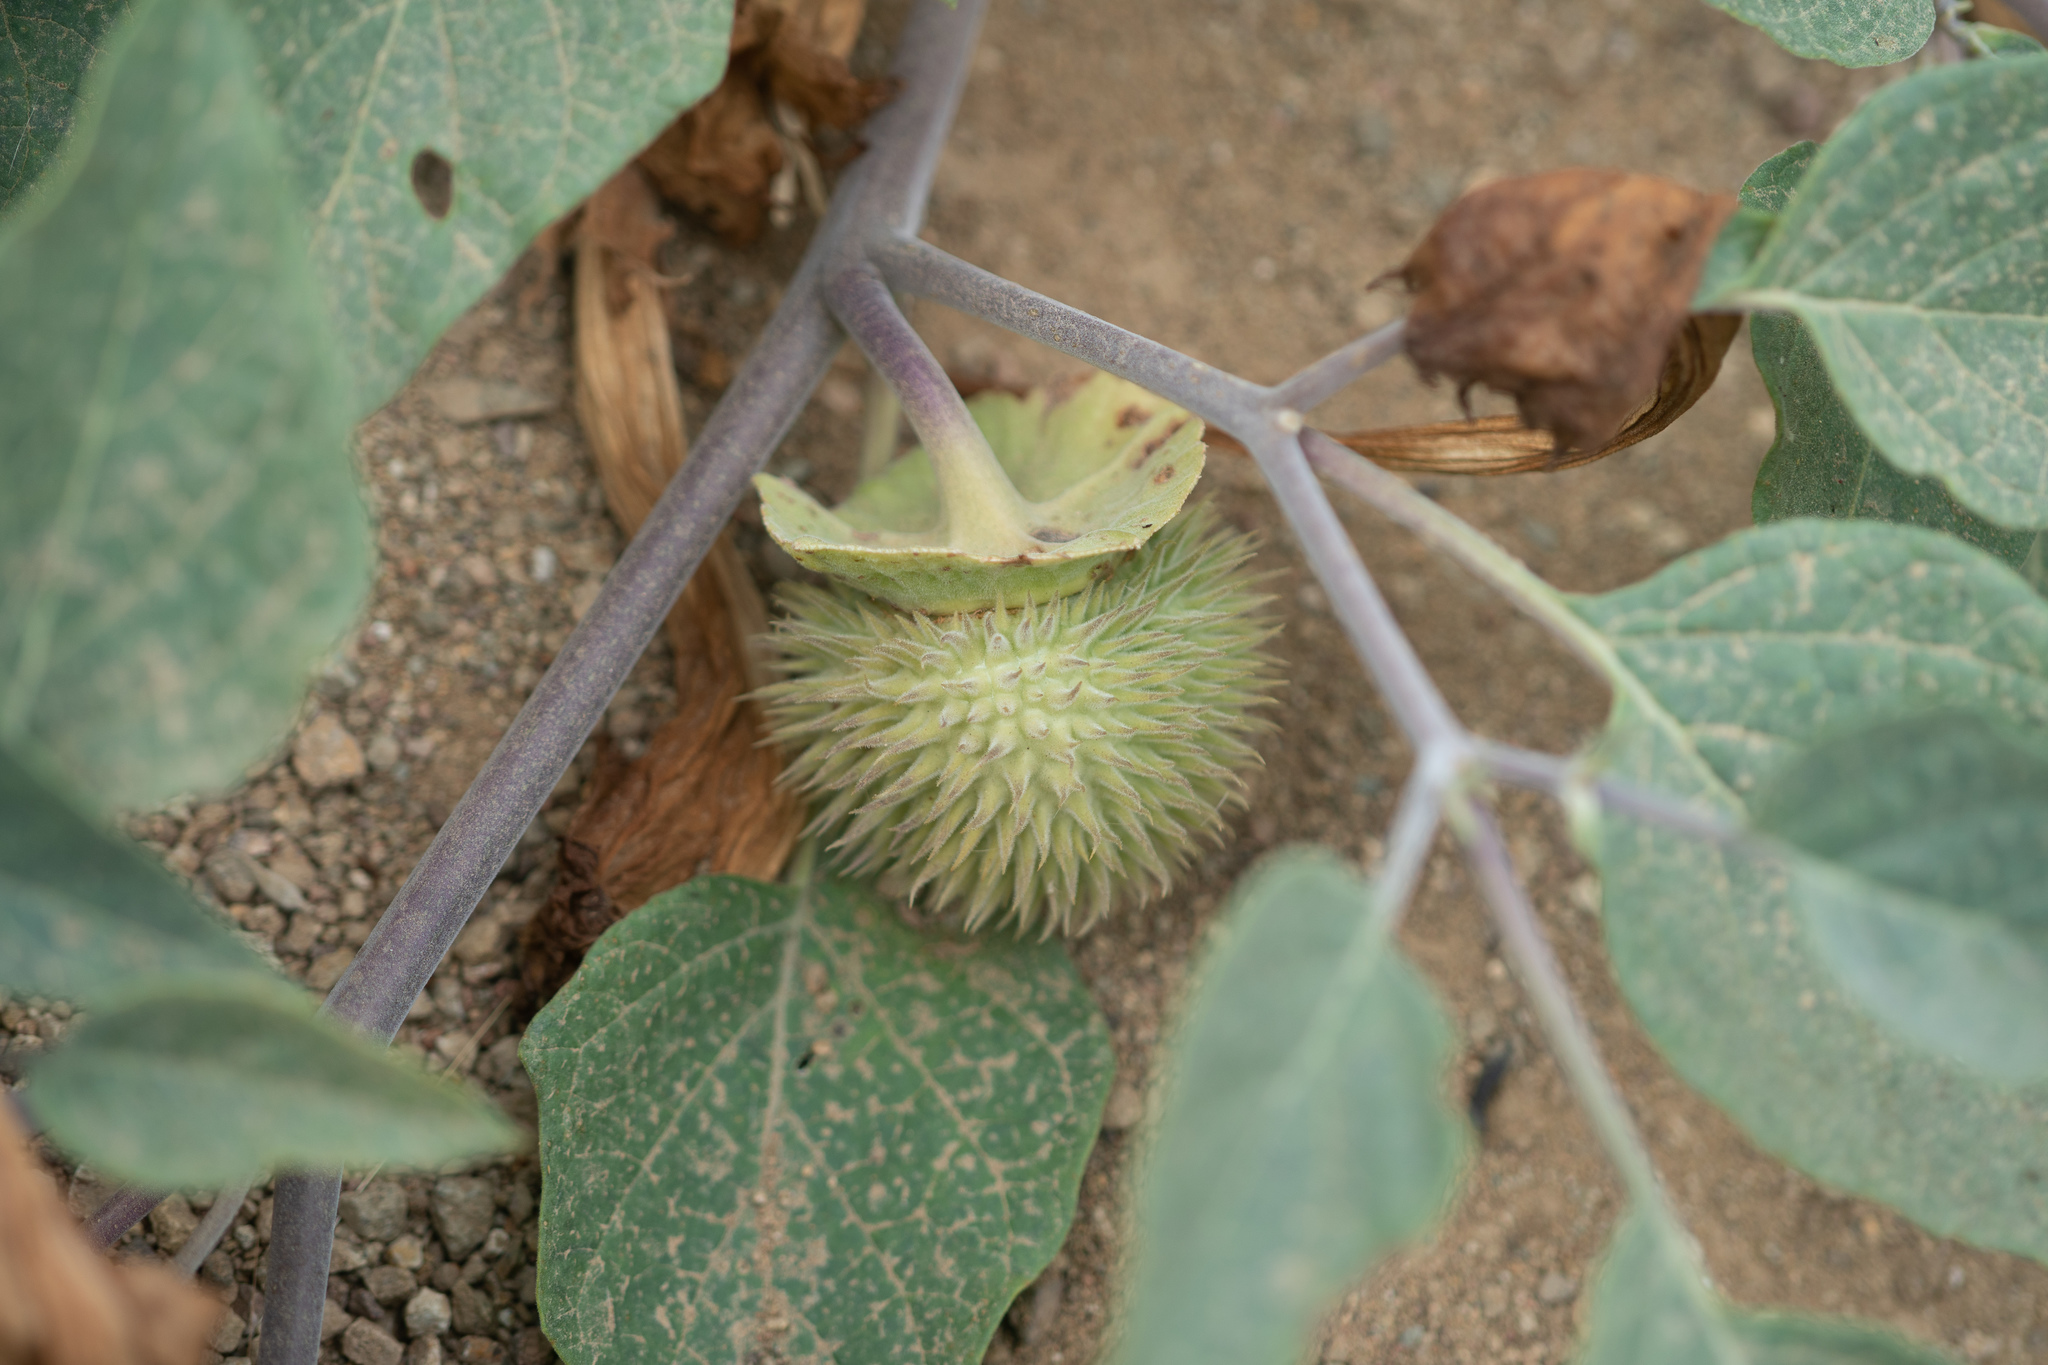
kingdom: Plantae
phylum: Tracheophyta
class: Magnoliopsida
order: Solanales
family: Solanaceae
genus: Datura
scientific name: Datura wrightii
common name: Sacred thorn-apple
